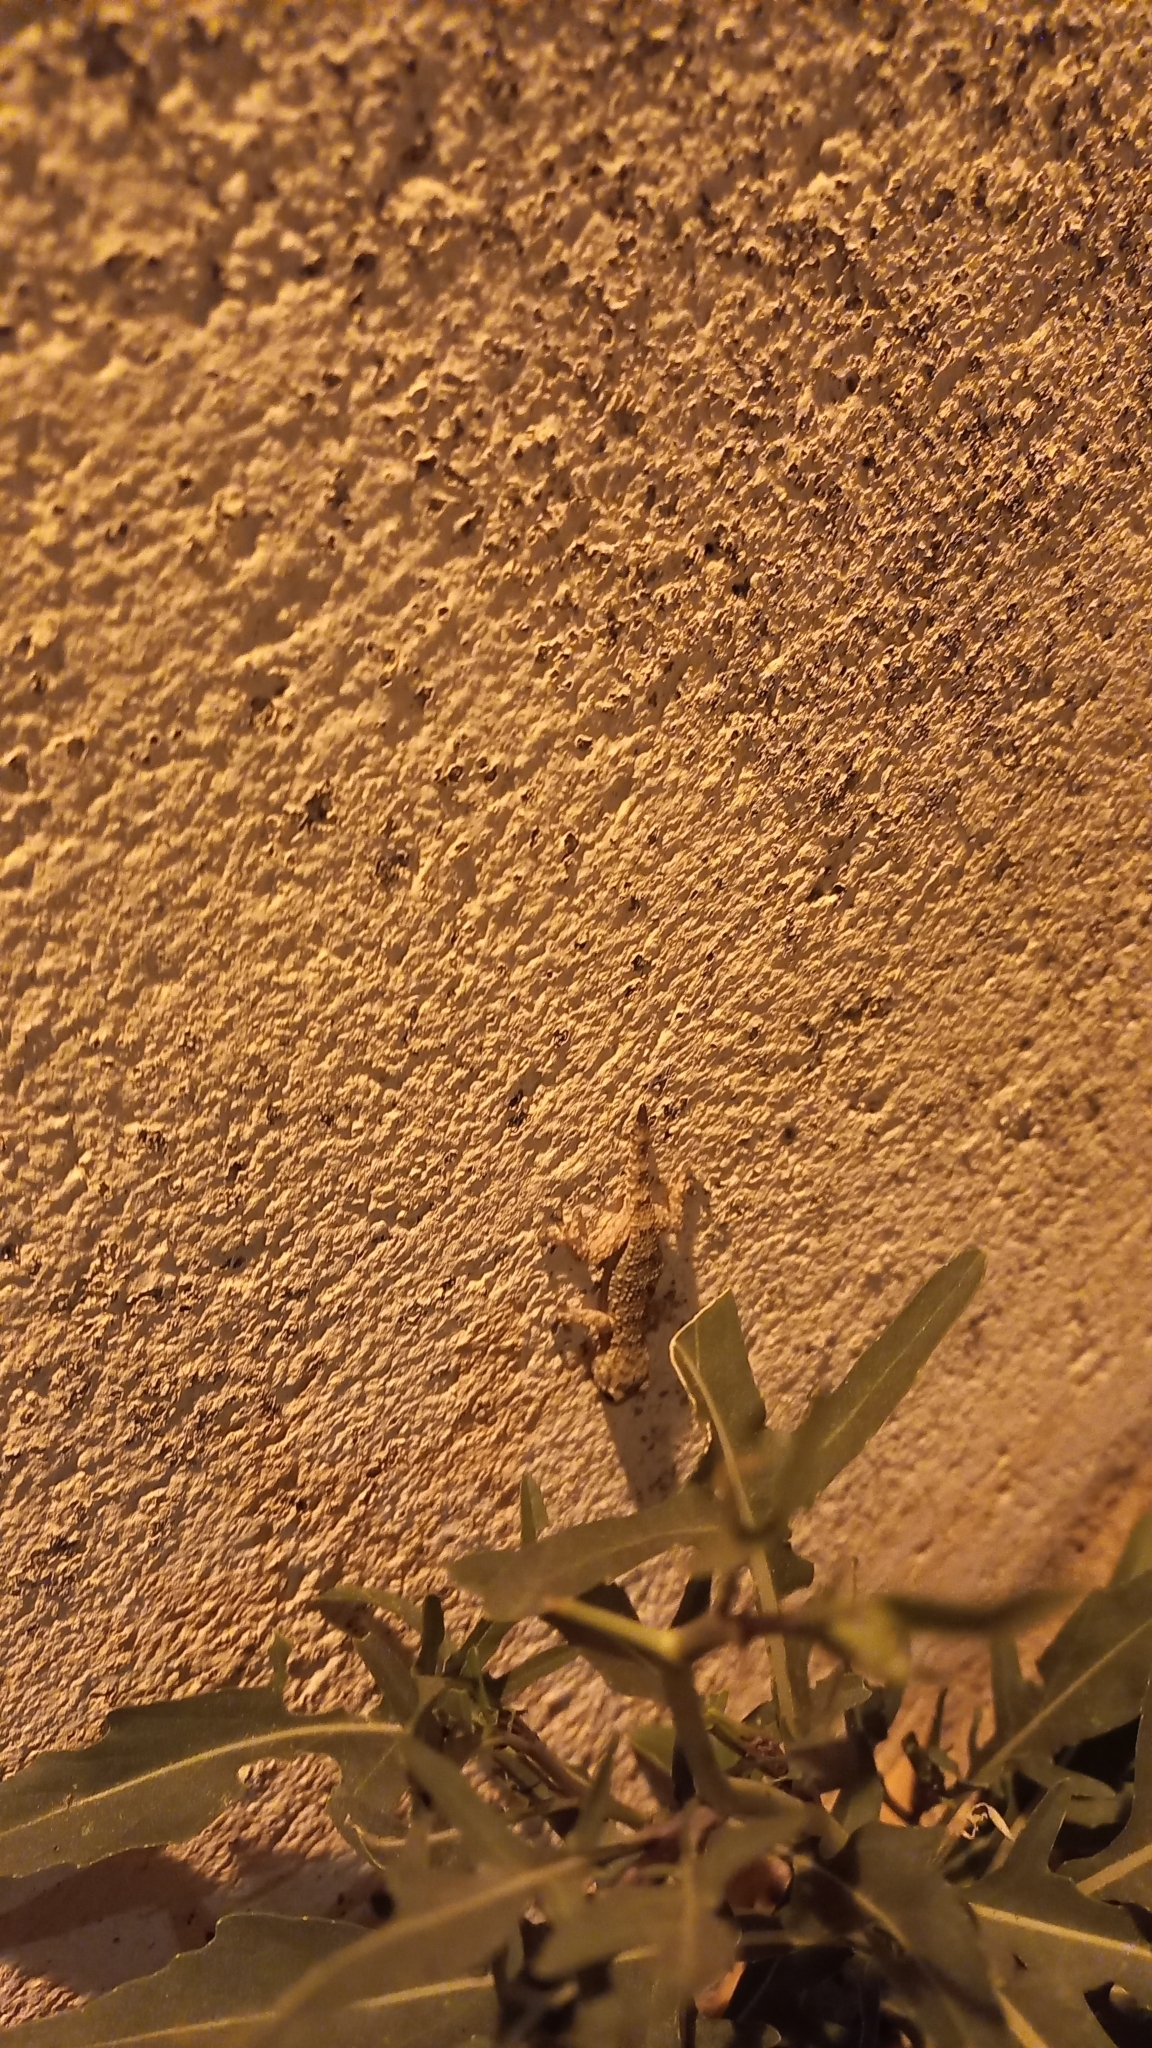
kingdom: Animalia
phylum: Chordata
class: Squamata
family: Phyllodactylidae
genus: Tarentola
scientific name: Tarentola mauritanica
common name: Moorish gecko
